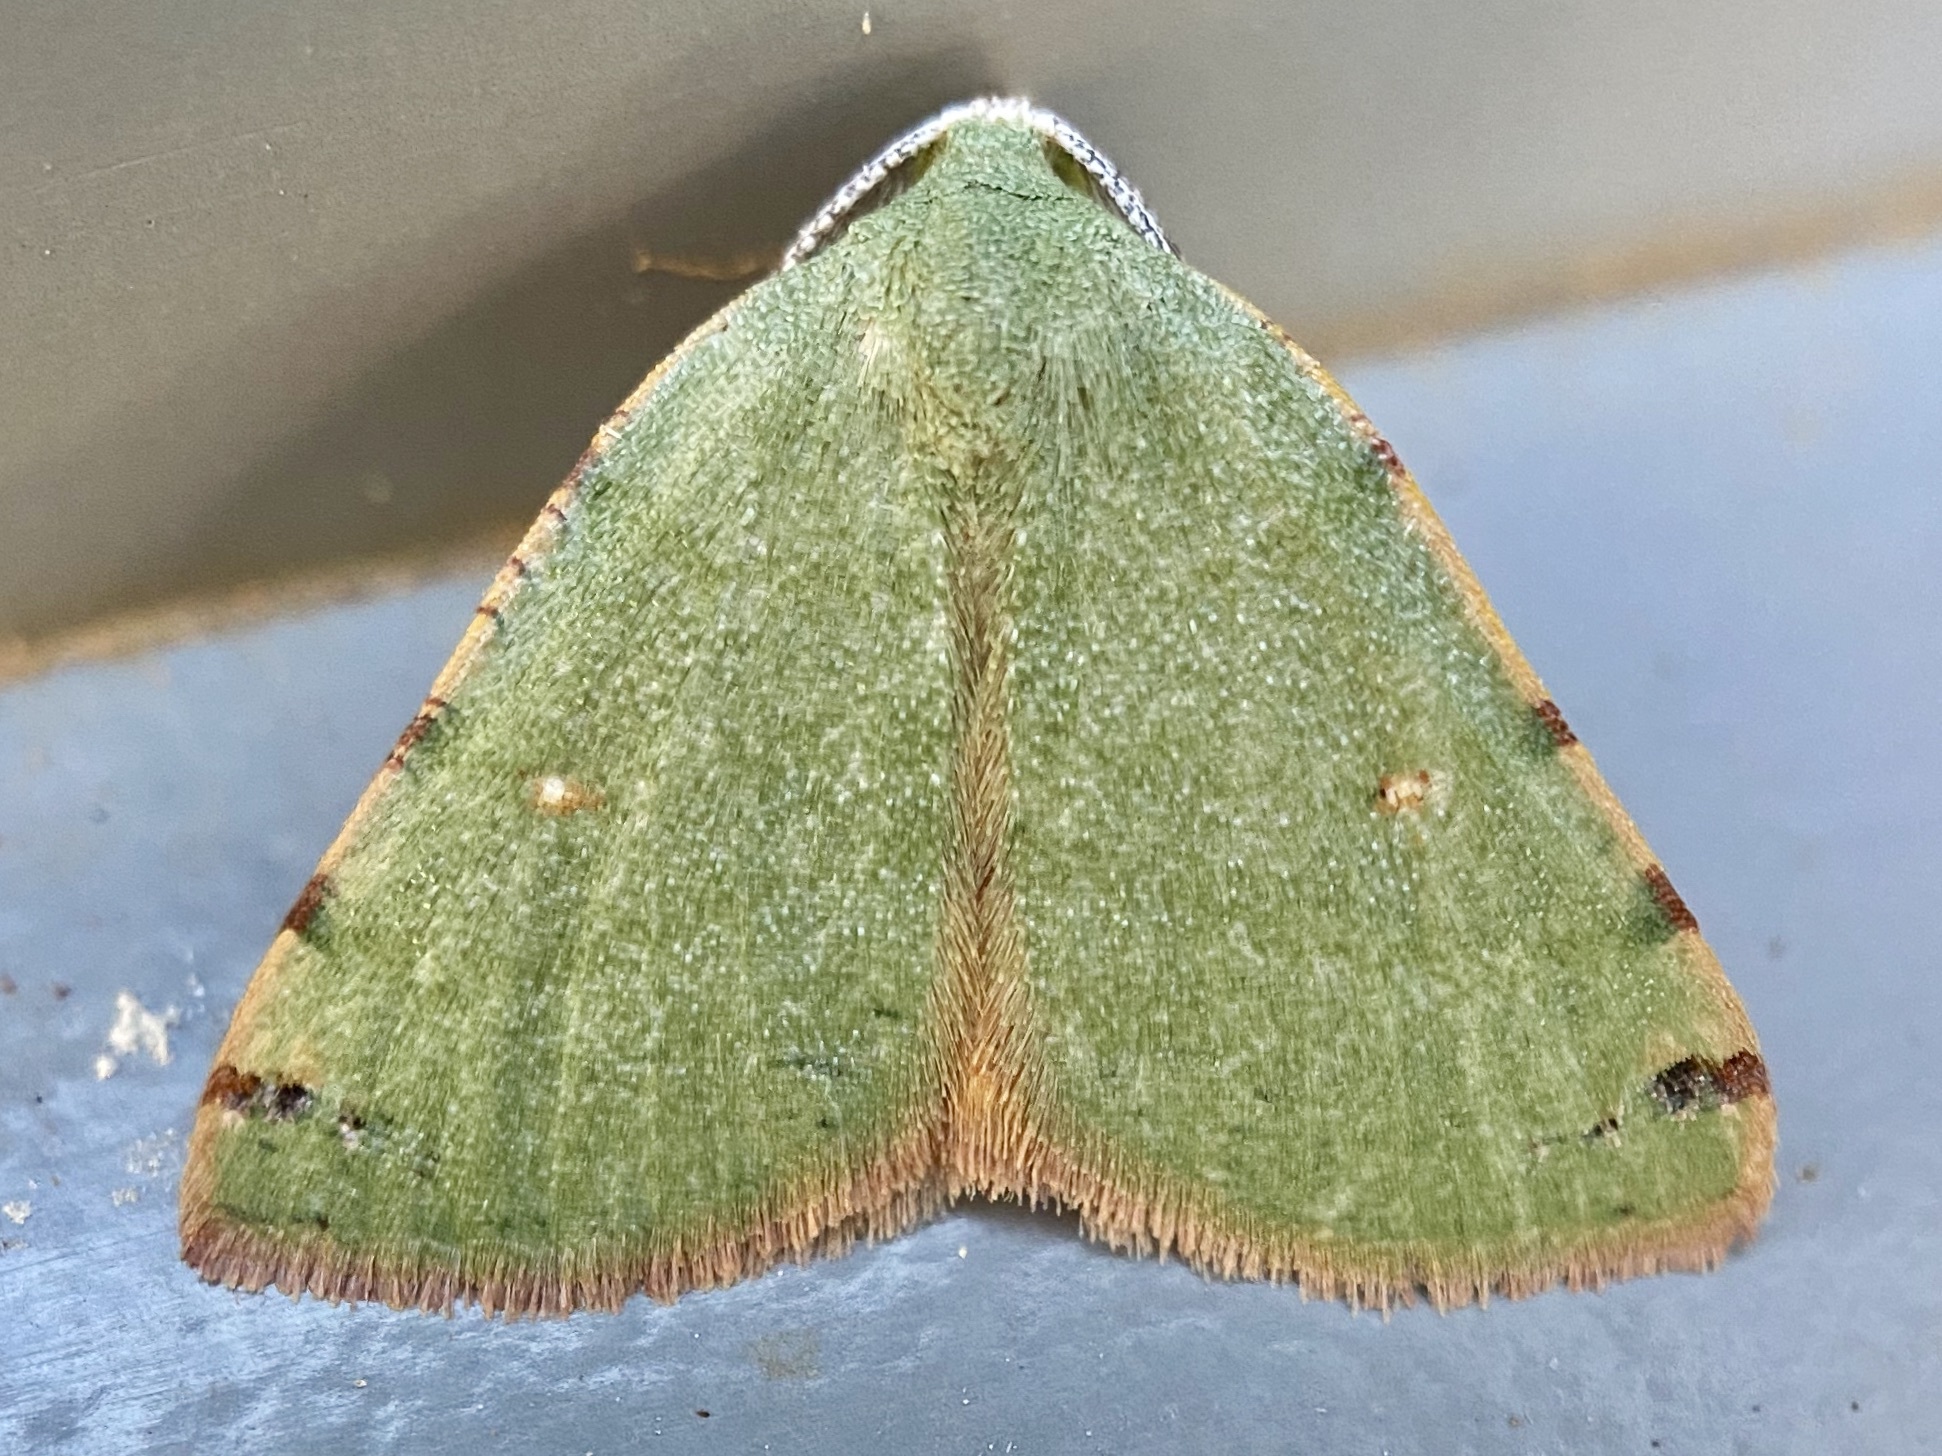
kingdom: Animalia
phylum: Arthropoda
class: Insecta
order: Lepidoptera
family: Geometridae
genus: Chloraspilates
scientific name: Chloraspilates bicoloraria
